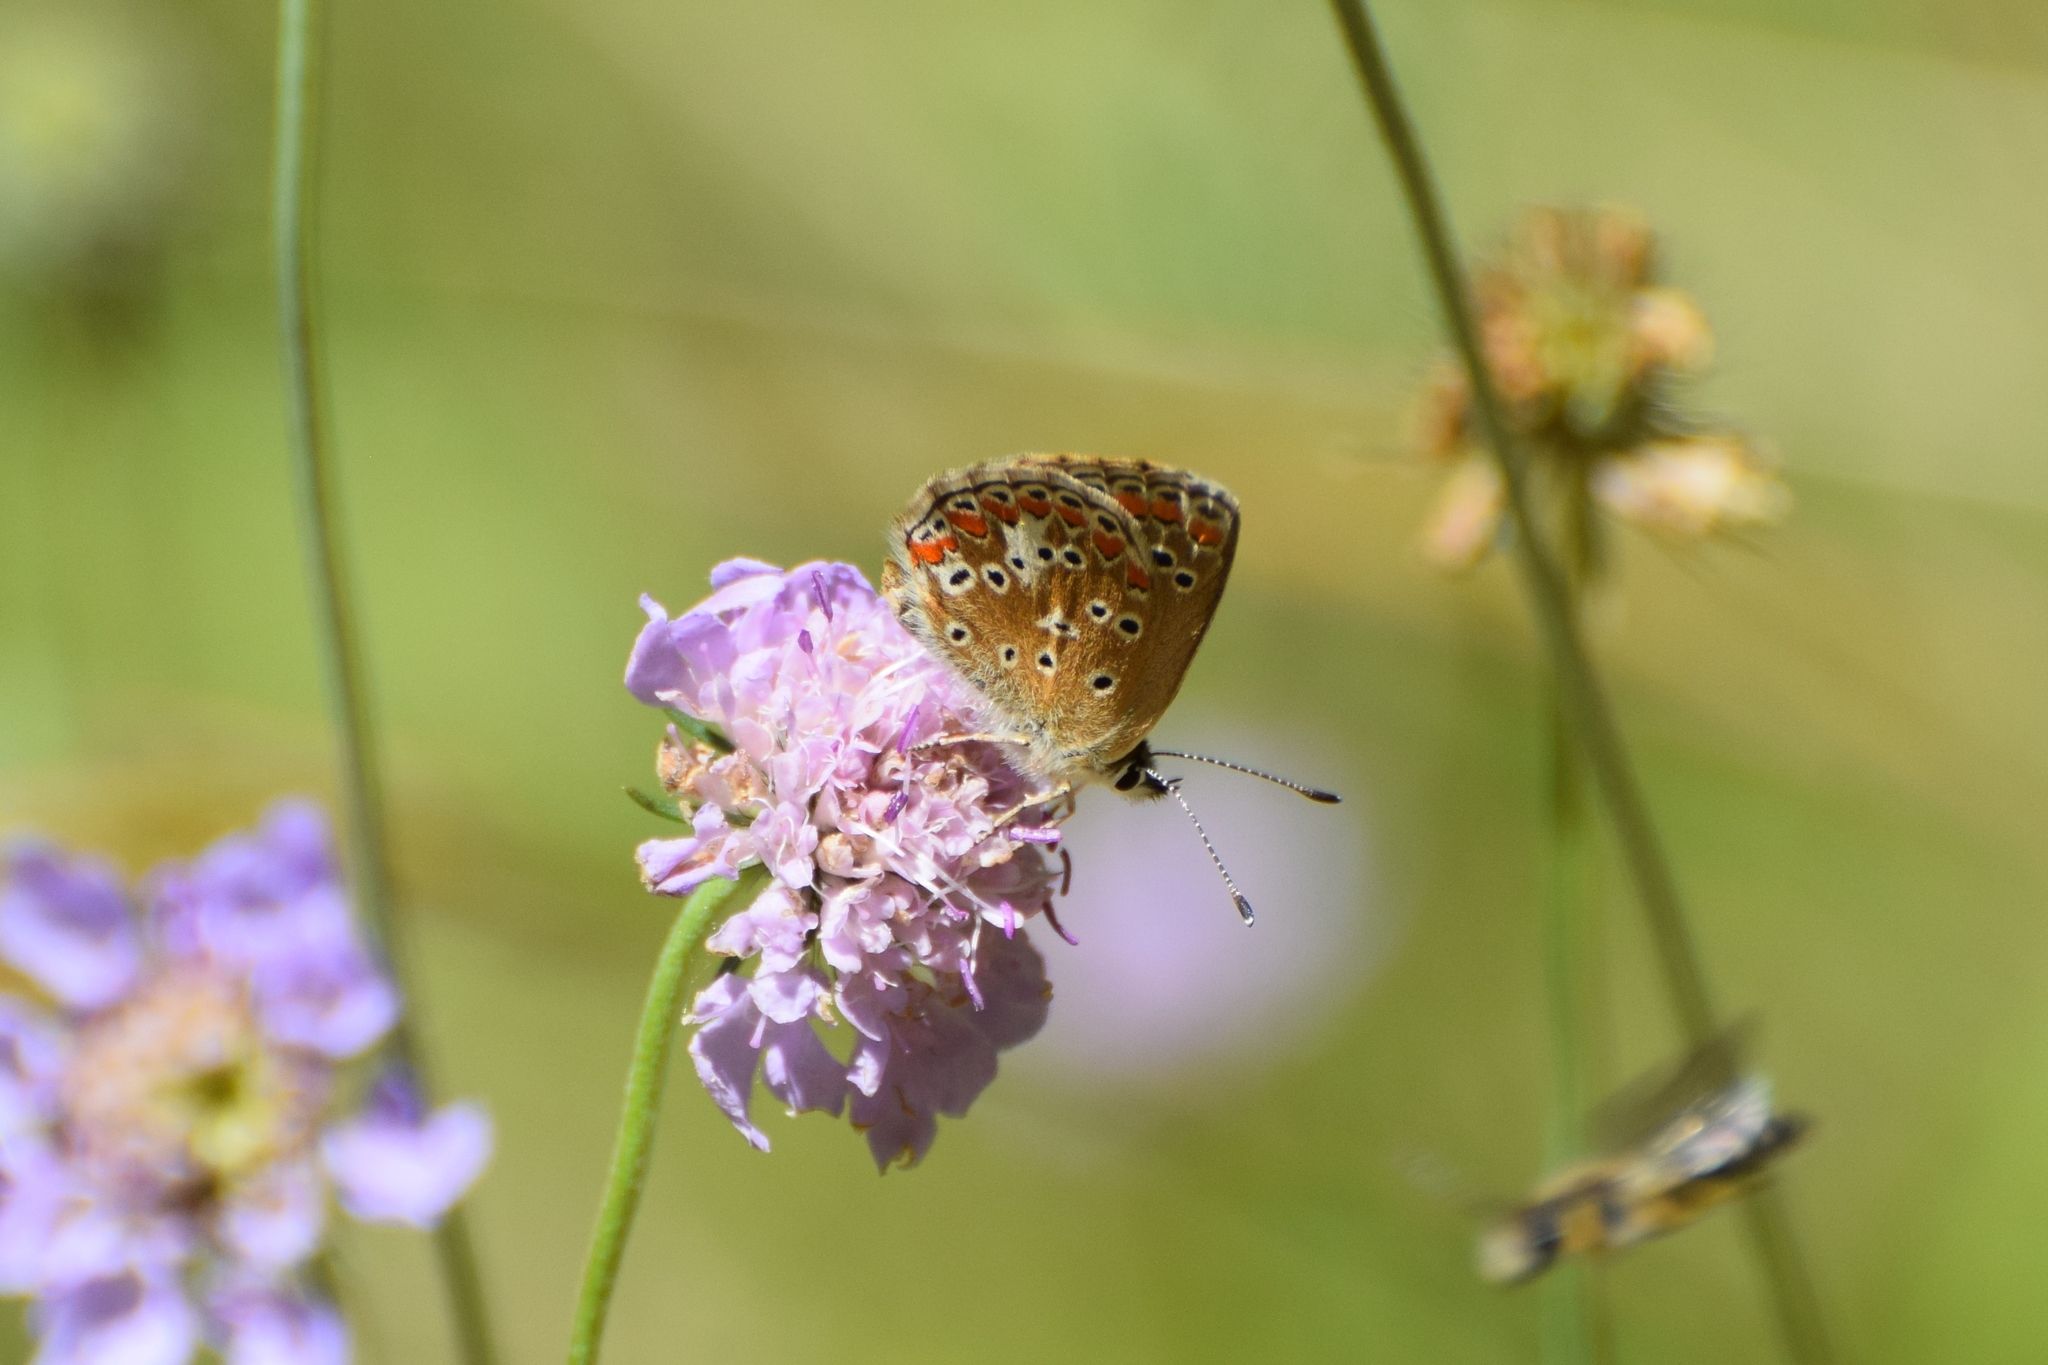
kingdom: Animalia
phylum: Arthropoda
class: Insecta
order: Lepidoptera
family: Lycaenidae
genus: Aricia
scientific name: Aricia agestis
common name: Brown argus
